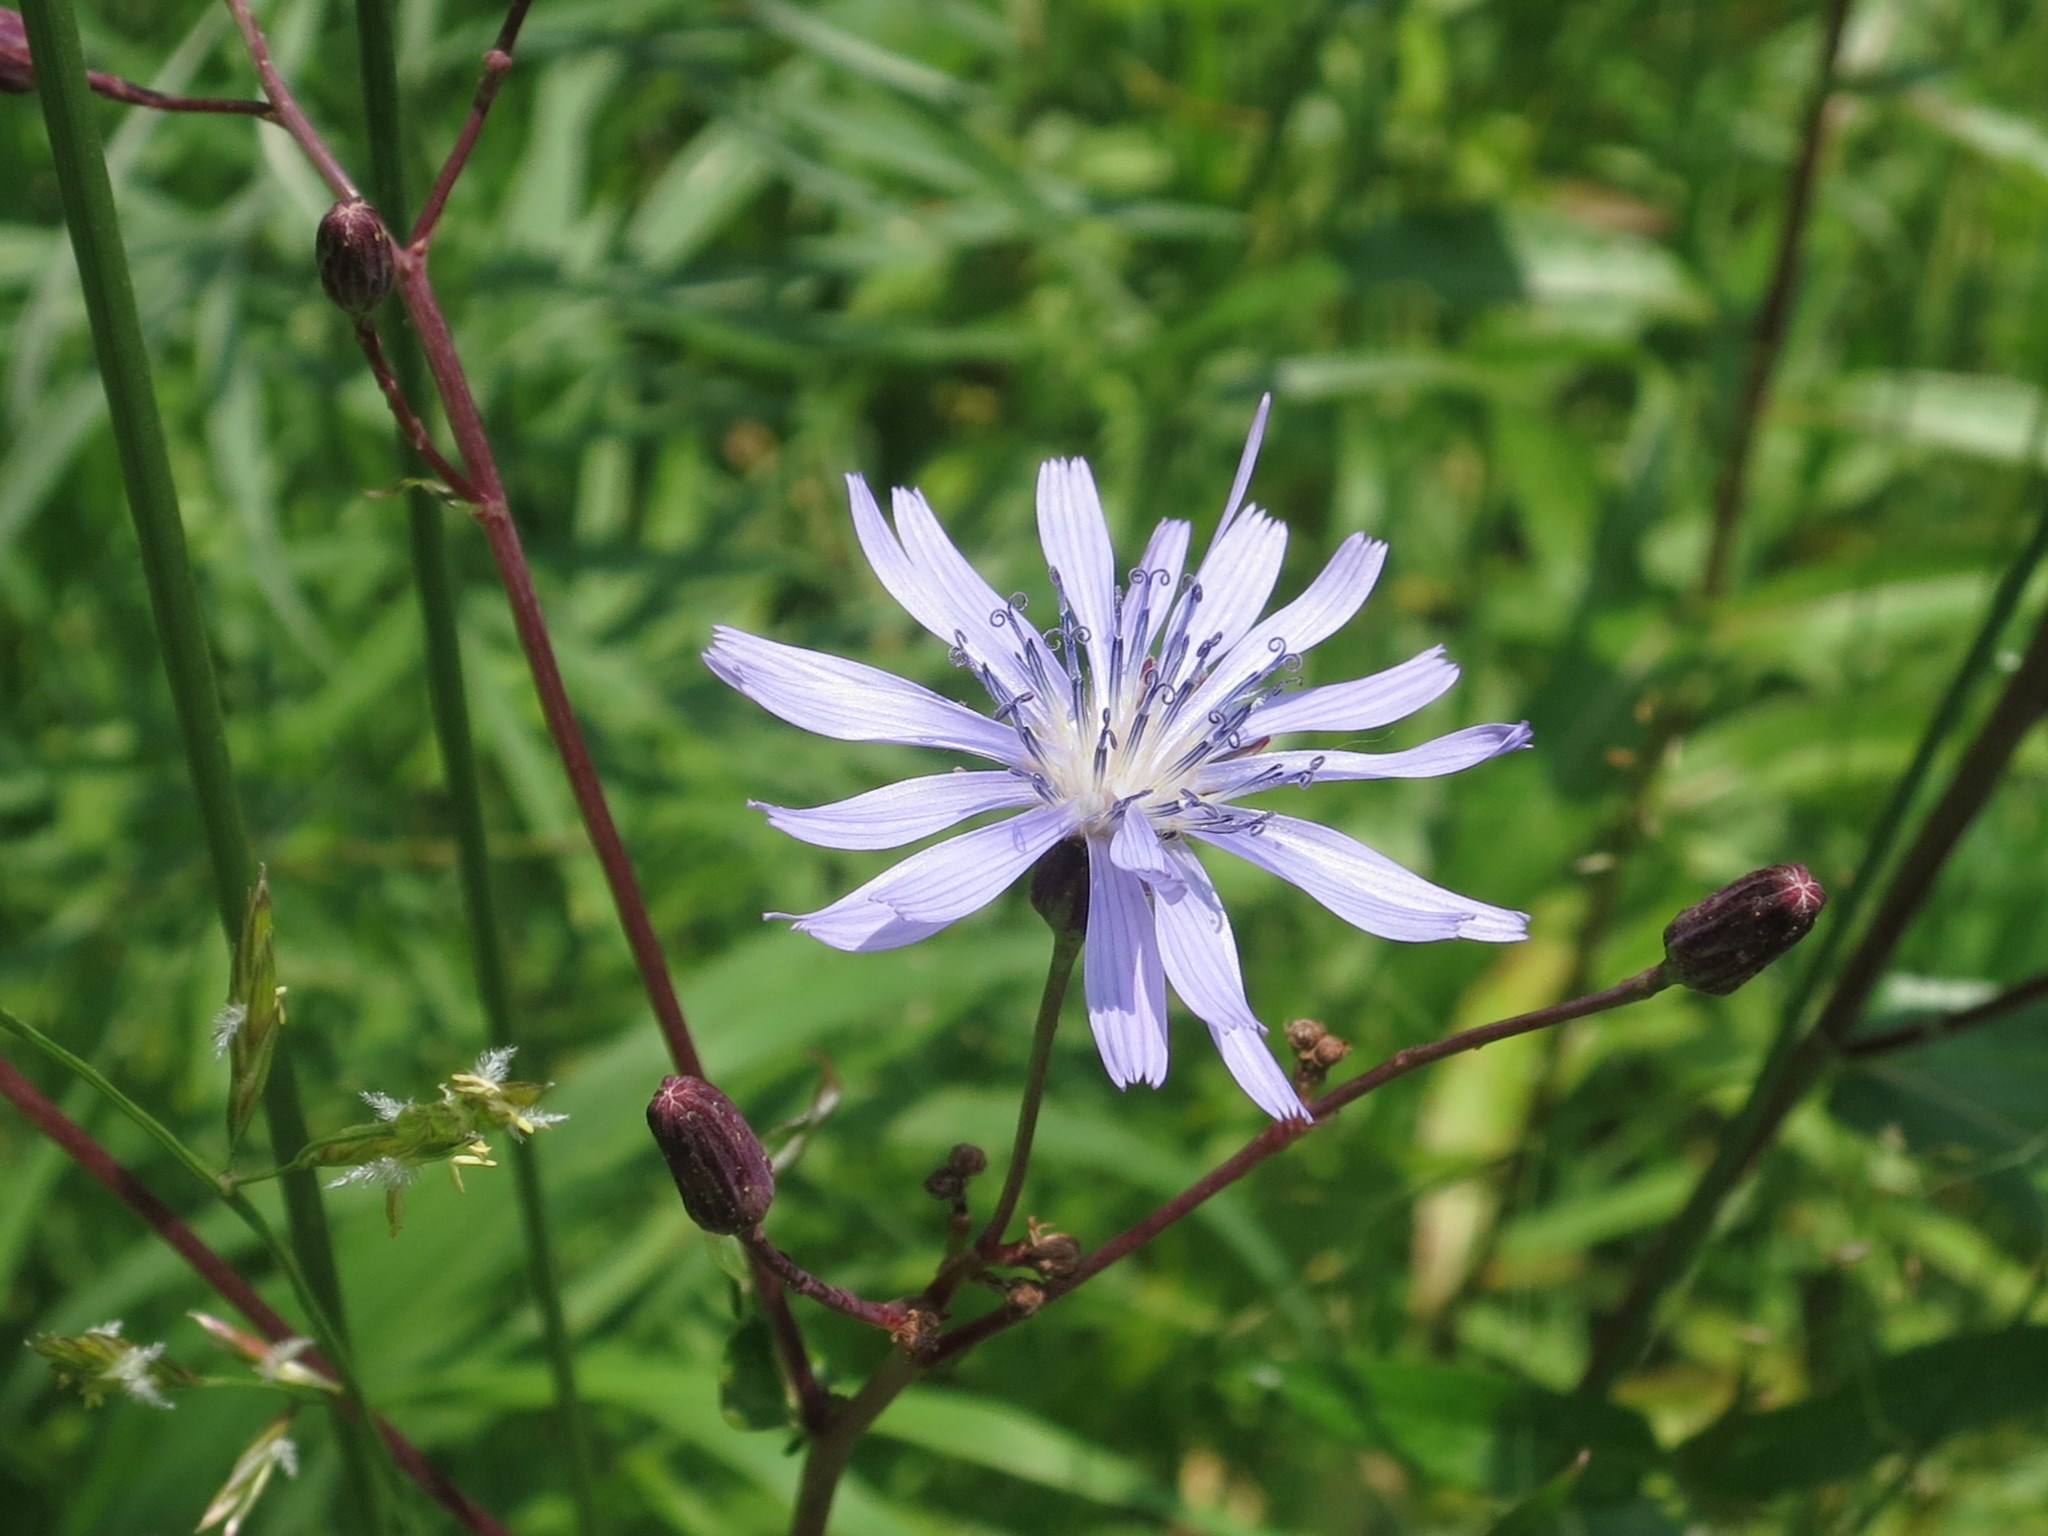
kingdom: Plantae
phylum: Tracheophyta
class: Magnoliopsida
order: Asterales
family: Asteraceae
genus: Lactuca
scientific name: Lactuca sibirica
